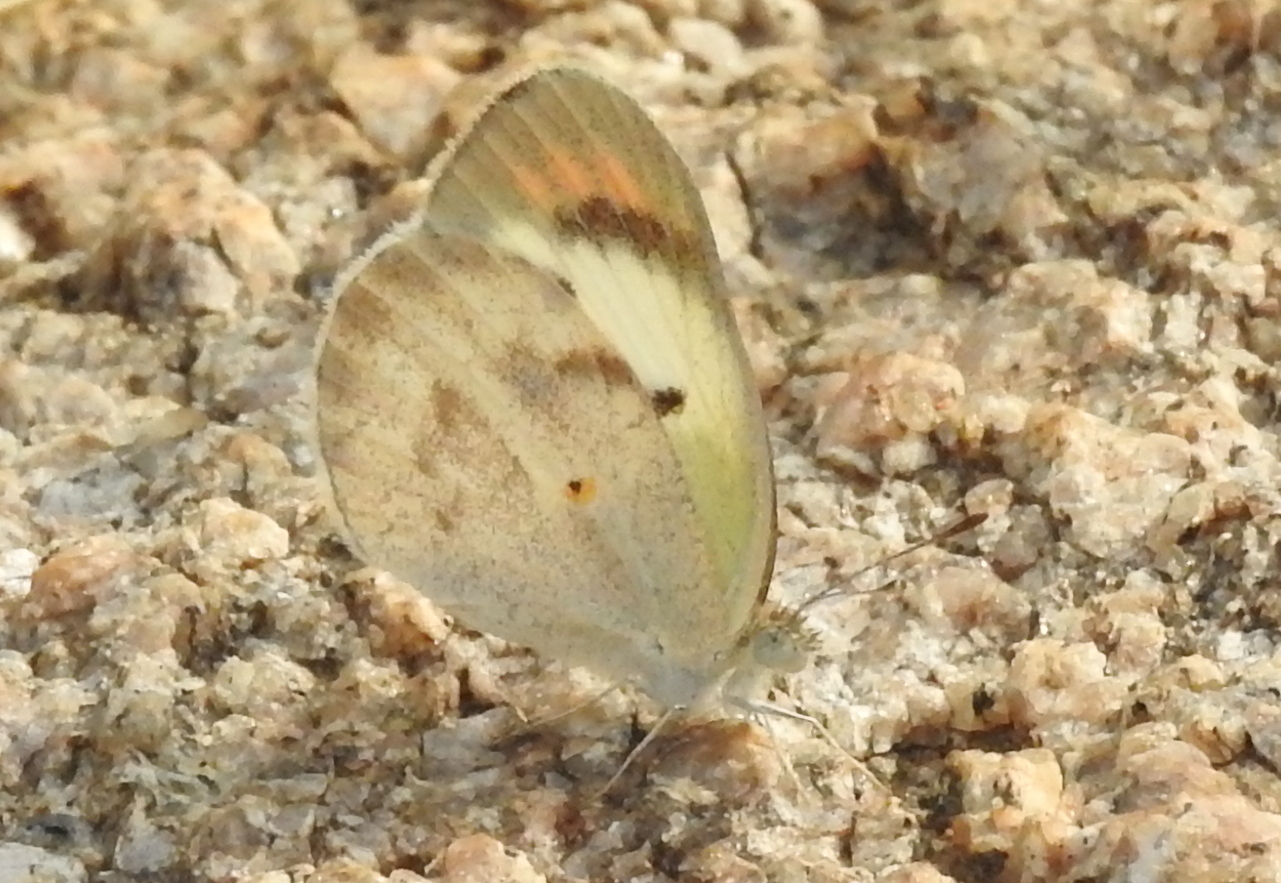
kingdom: Animalia
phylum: Arthropoda
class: Insecta
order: Lepidoptera
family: Pieridae
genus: Colotis
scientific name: Colotis etrida
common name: Little orange tip
